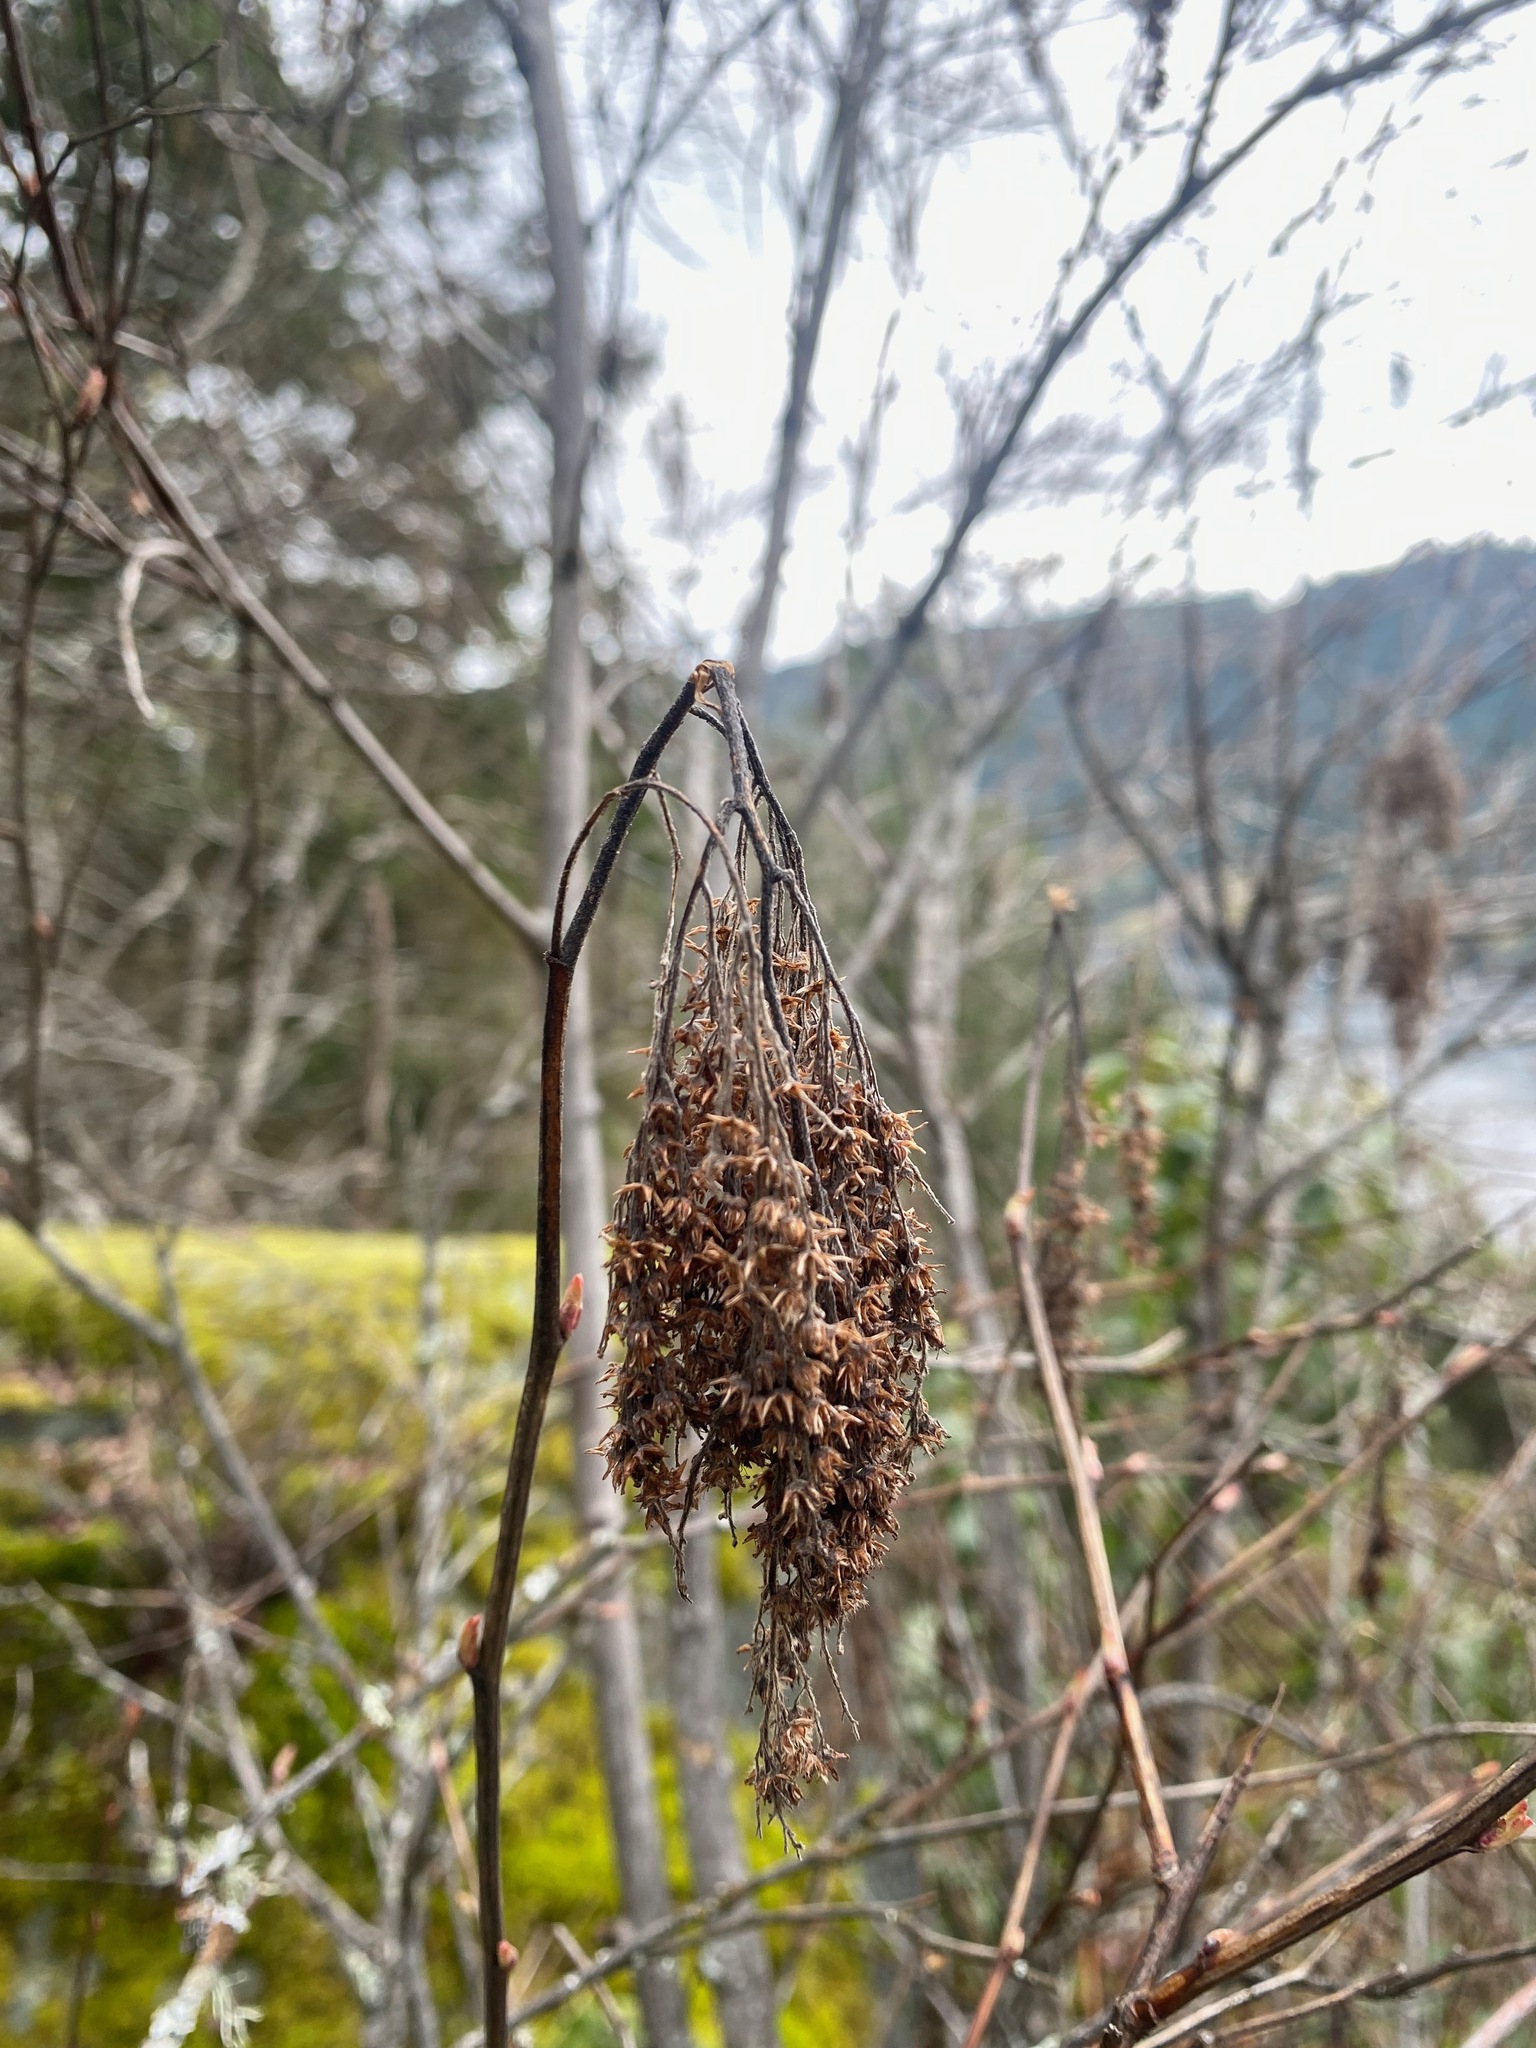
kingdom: Plantae
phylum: Tracheophyta
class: Magnoliopsida
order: Rosales
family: Rosaceae
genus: Holodiscus
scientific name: Holodiscus discolor
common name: Oceanspray
